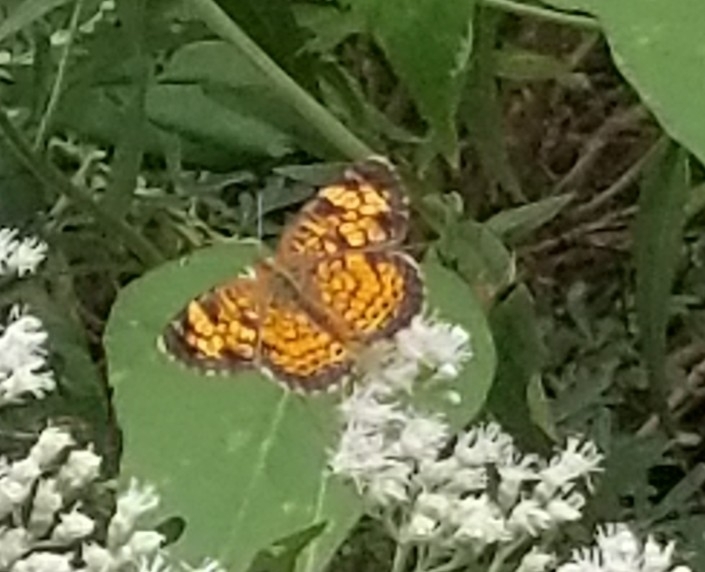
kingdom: Animalia
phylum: Arthropoda
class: Insecta
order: Lepidoptera
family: Nymphalidae
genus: Phyciodes
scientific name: Phyciodes tharos
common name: Pearl crescent
